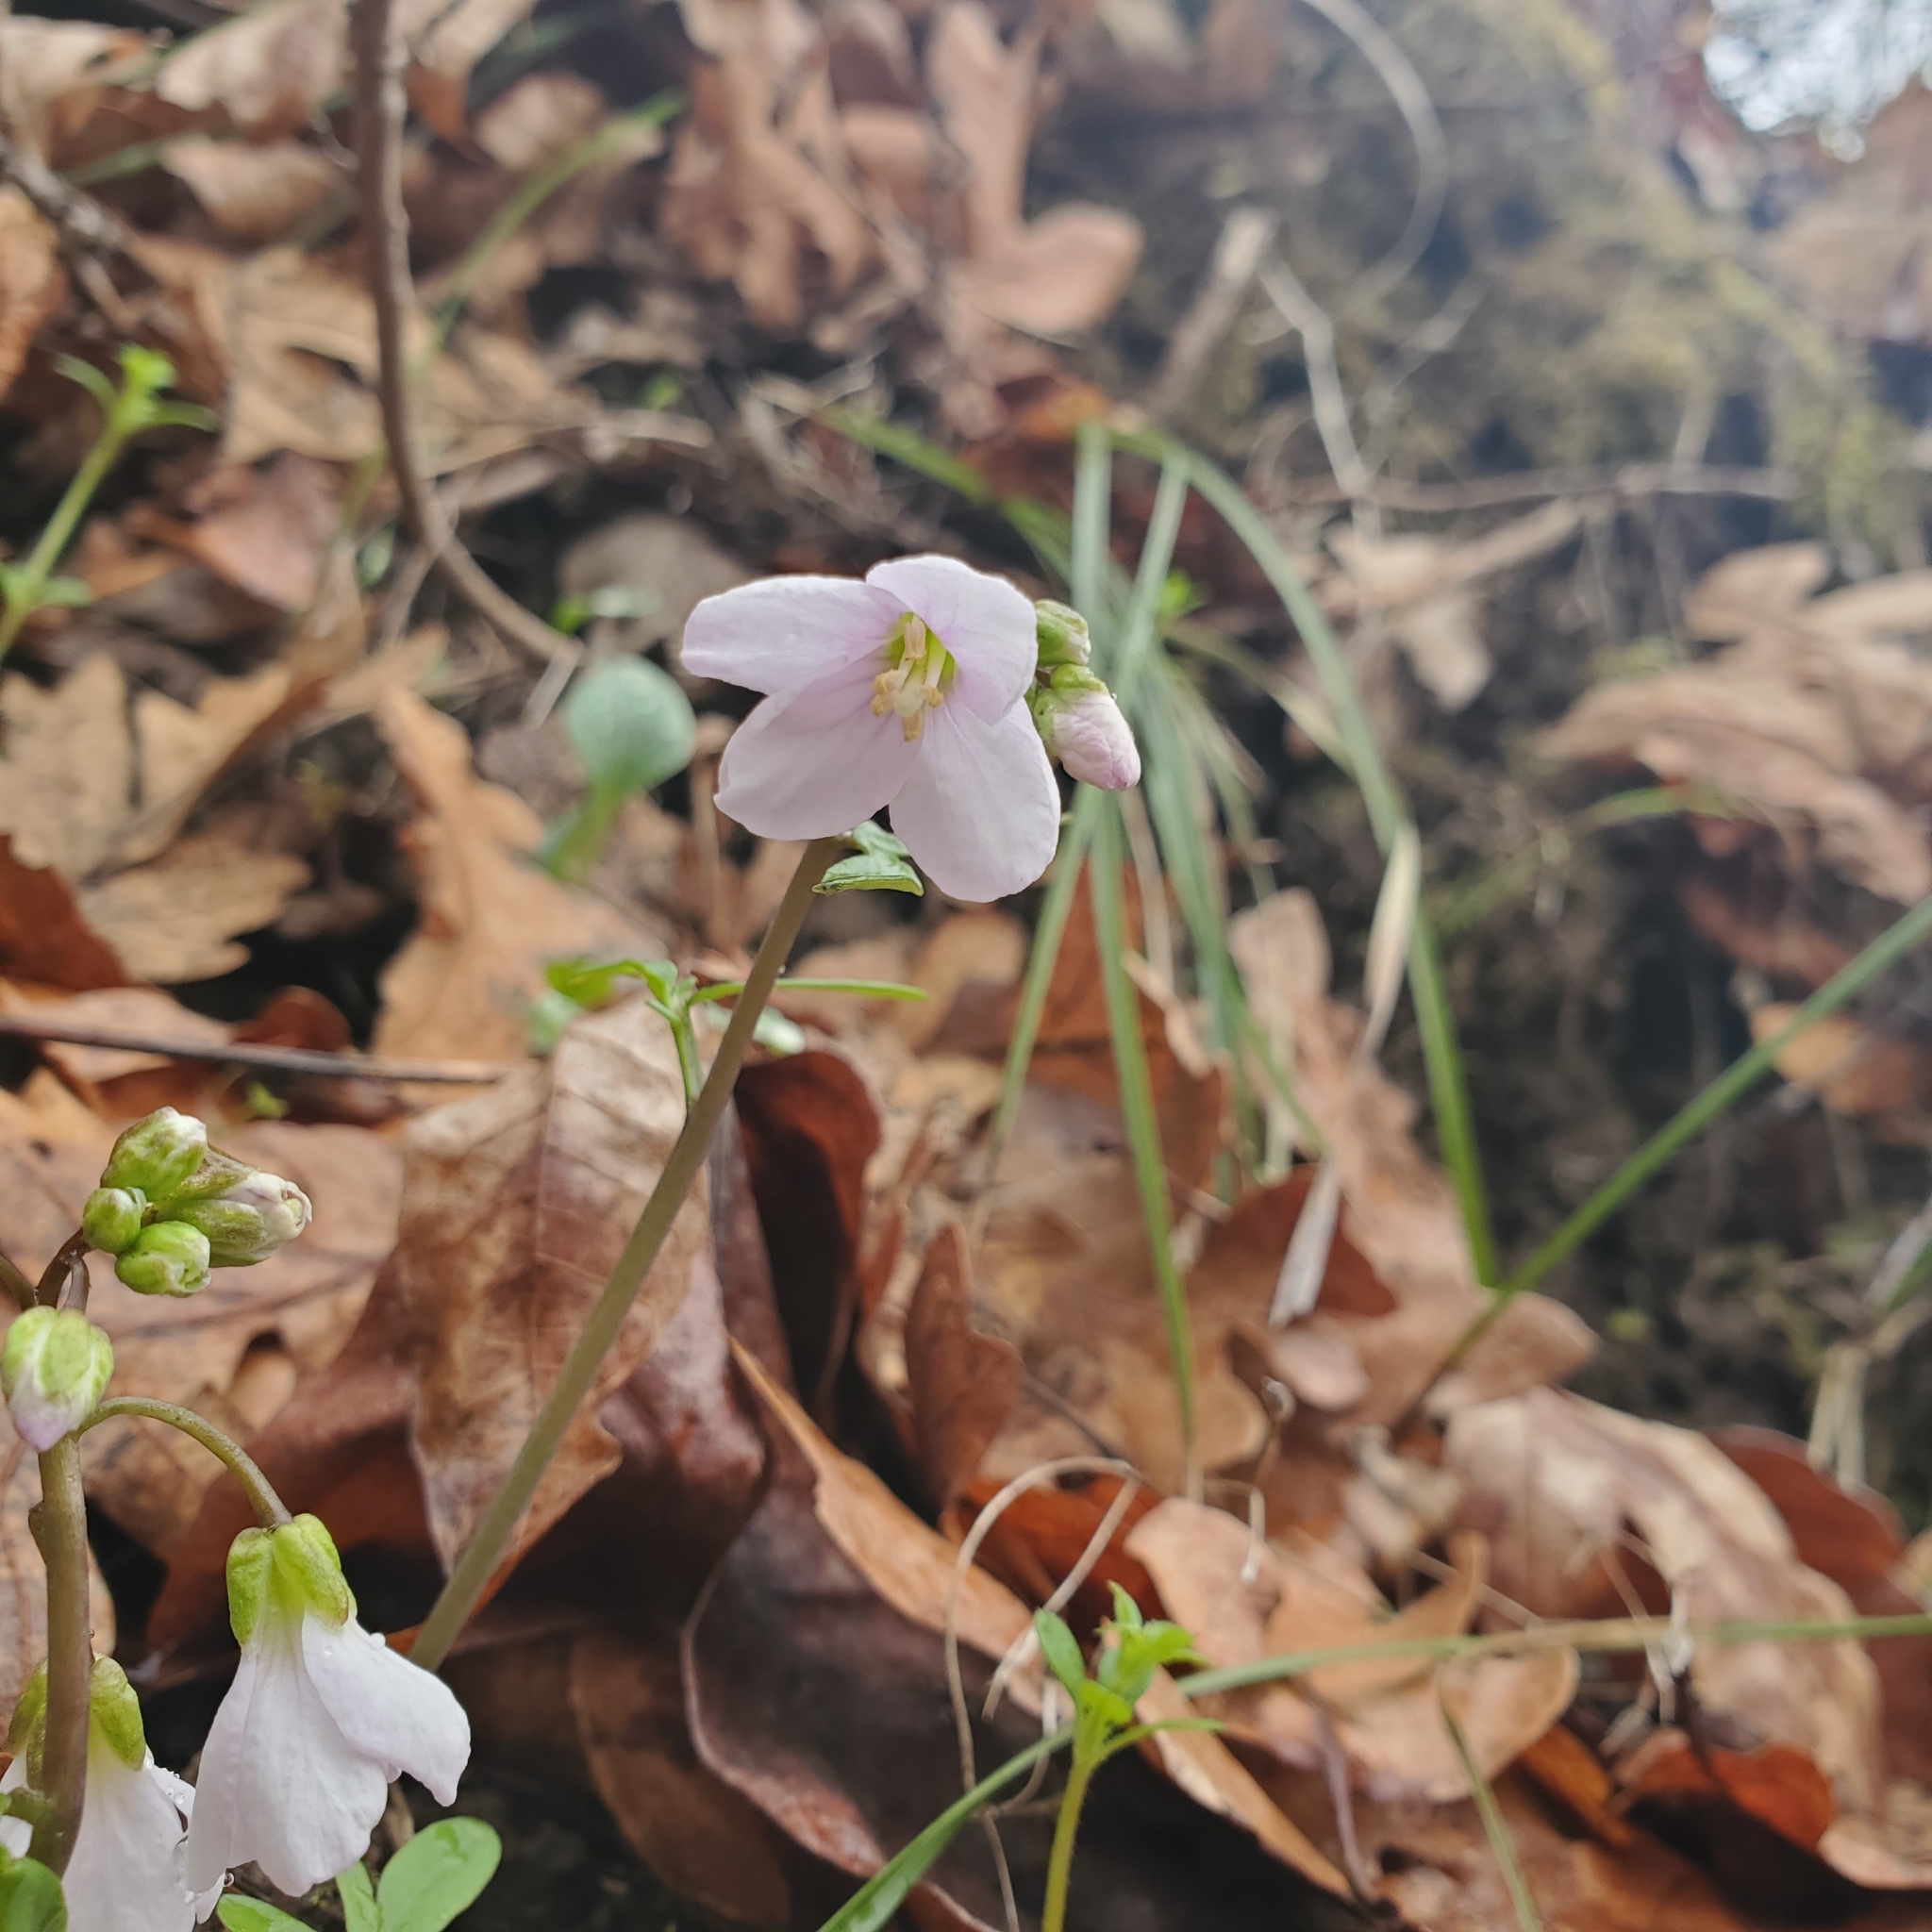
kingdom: Plantae
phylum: Tracheophyta
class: Magnoliopsida
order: Brassicales
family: Brassicaceae
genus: Cardamine
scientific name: Cardamine nuttallii
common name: Nuttall's toothwort
